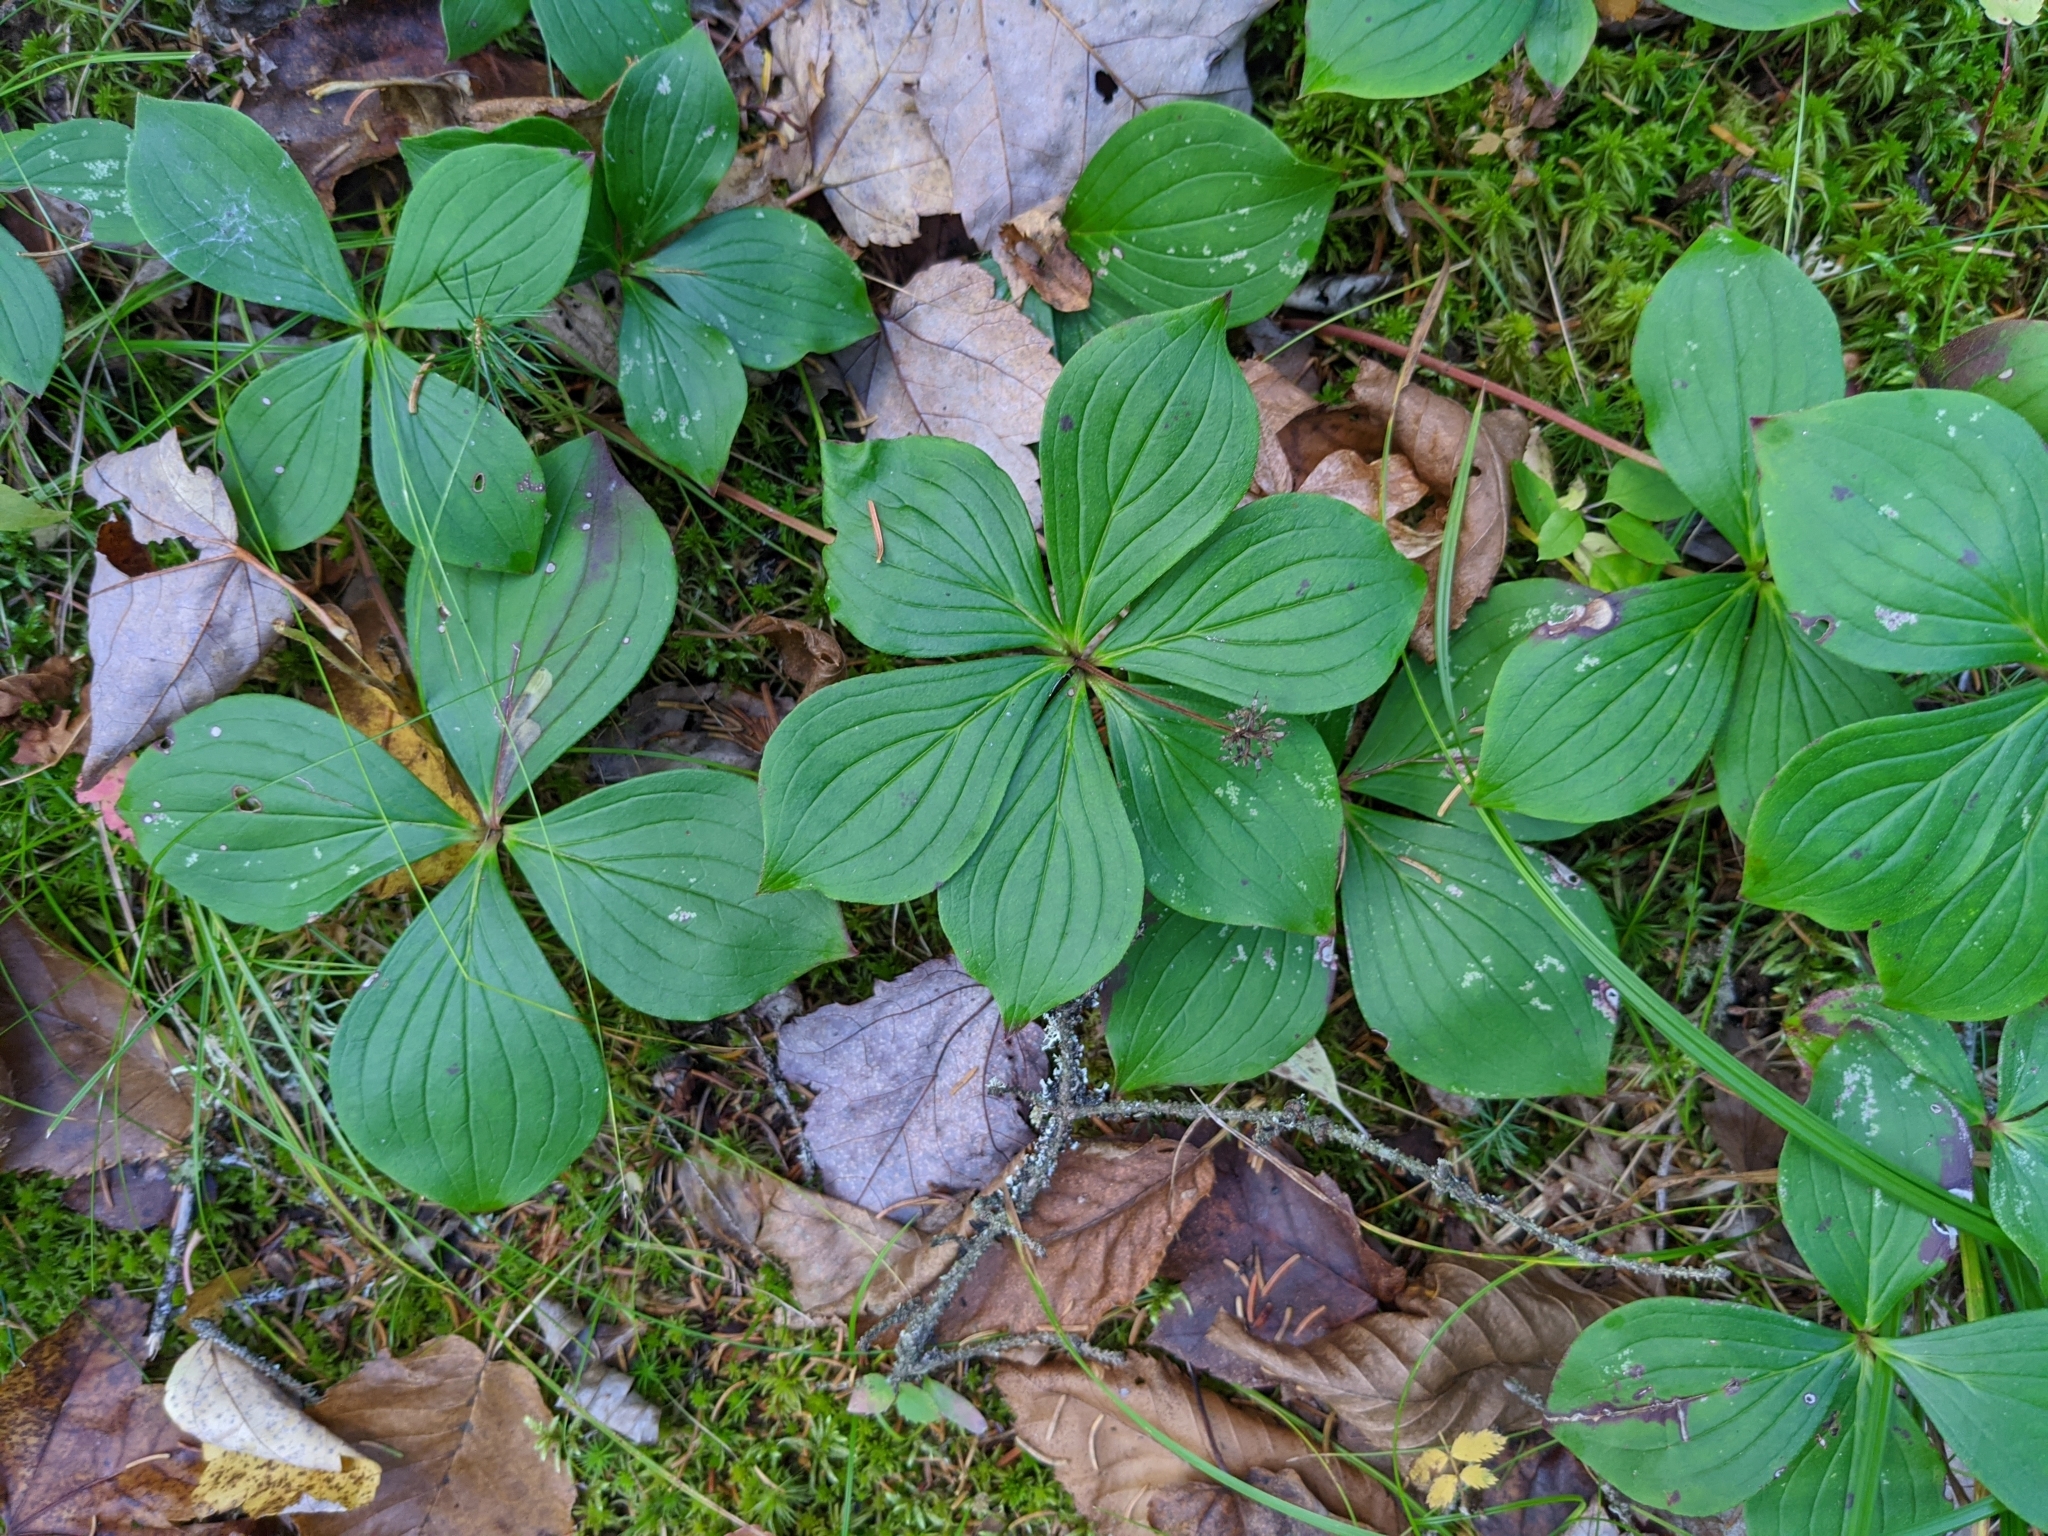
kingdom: Plantae
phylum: Tracheophyta
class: Magnoliopsida
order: Cornales
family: Cornaceae
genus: Cornus
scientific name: Cornus canadensis
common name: Creeping dogwood
